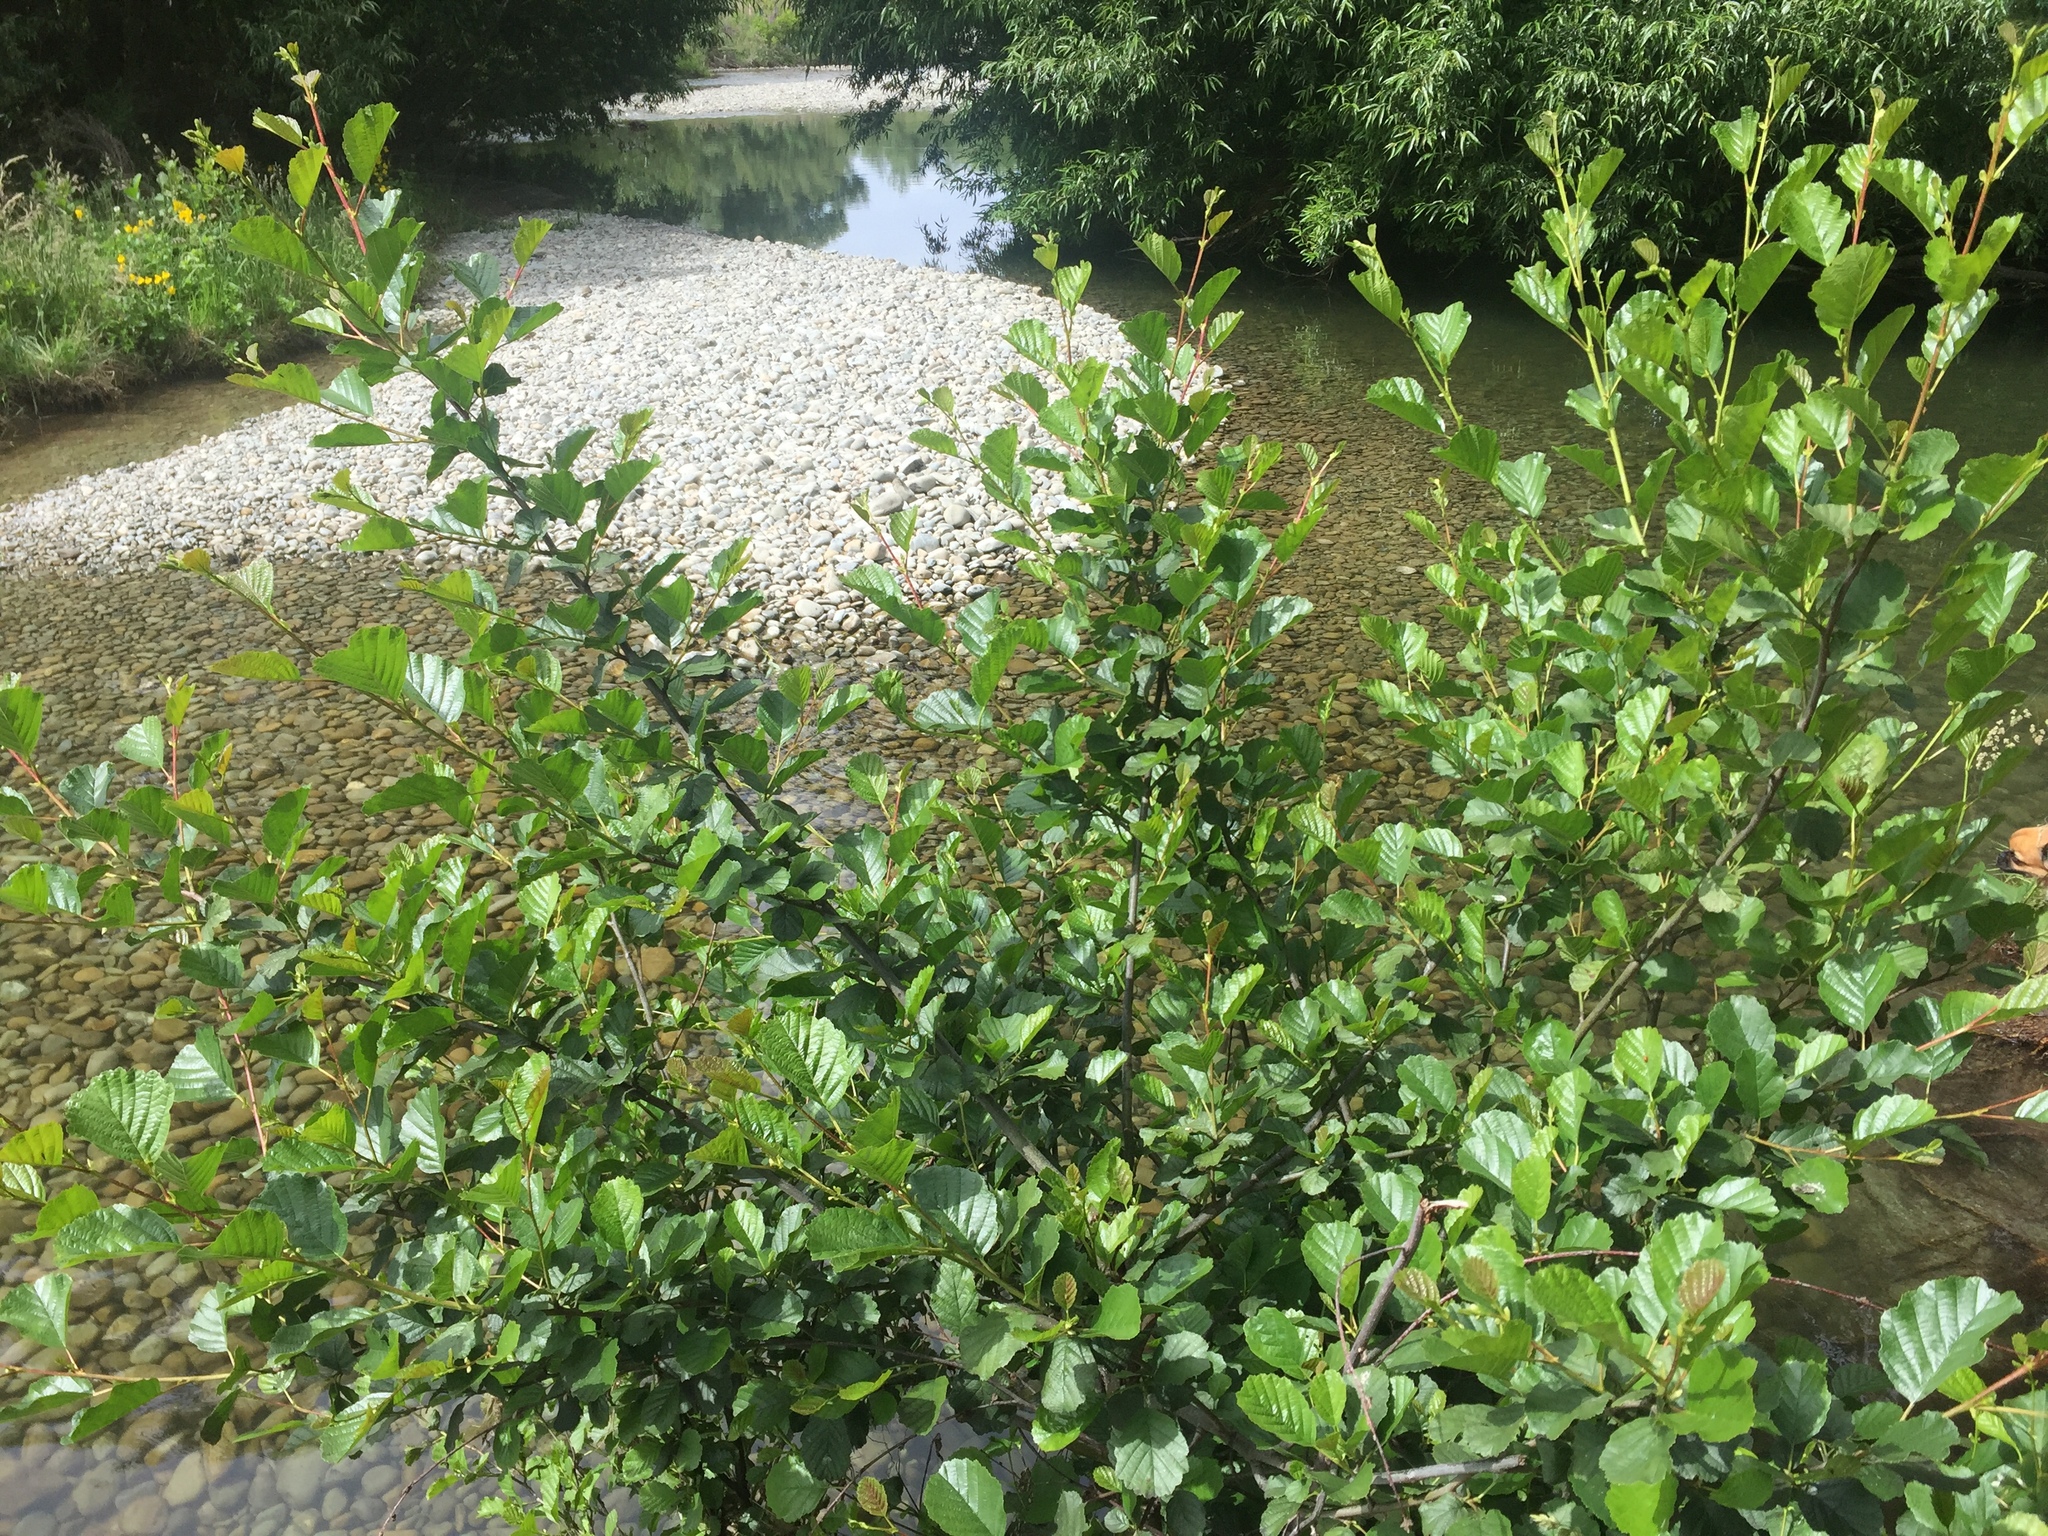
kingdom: Plantae
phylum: Tracheophyta
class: Magnoliopsida
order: Fagales
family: Betulaceae
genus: Alnus
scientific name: Alnus glutinosa
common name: Black alder
